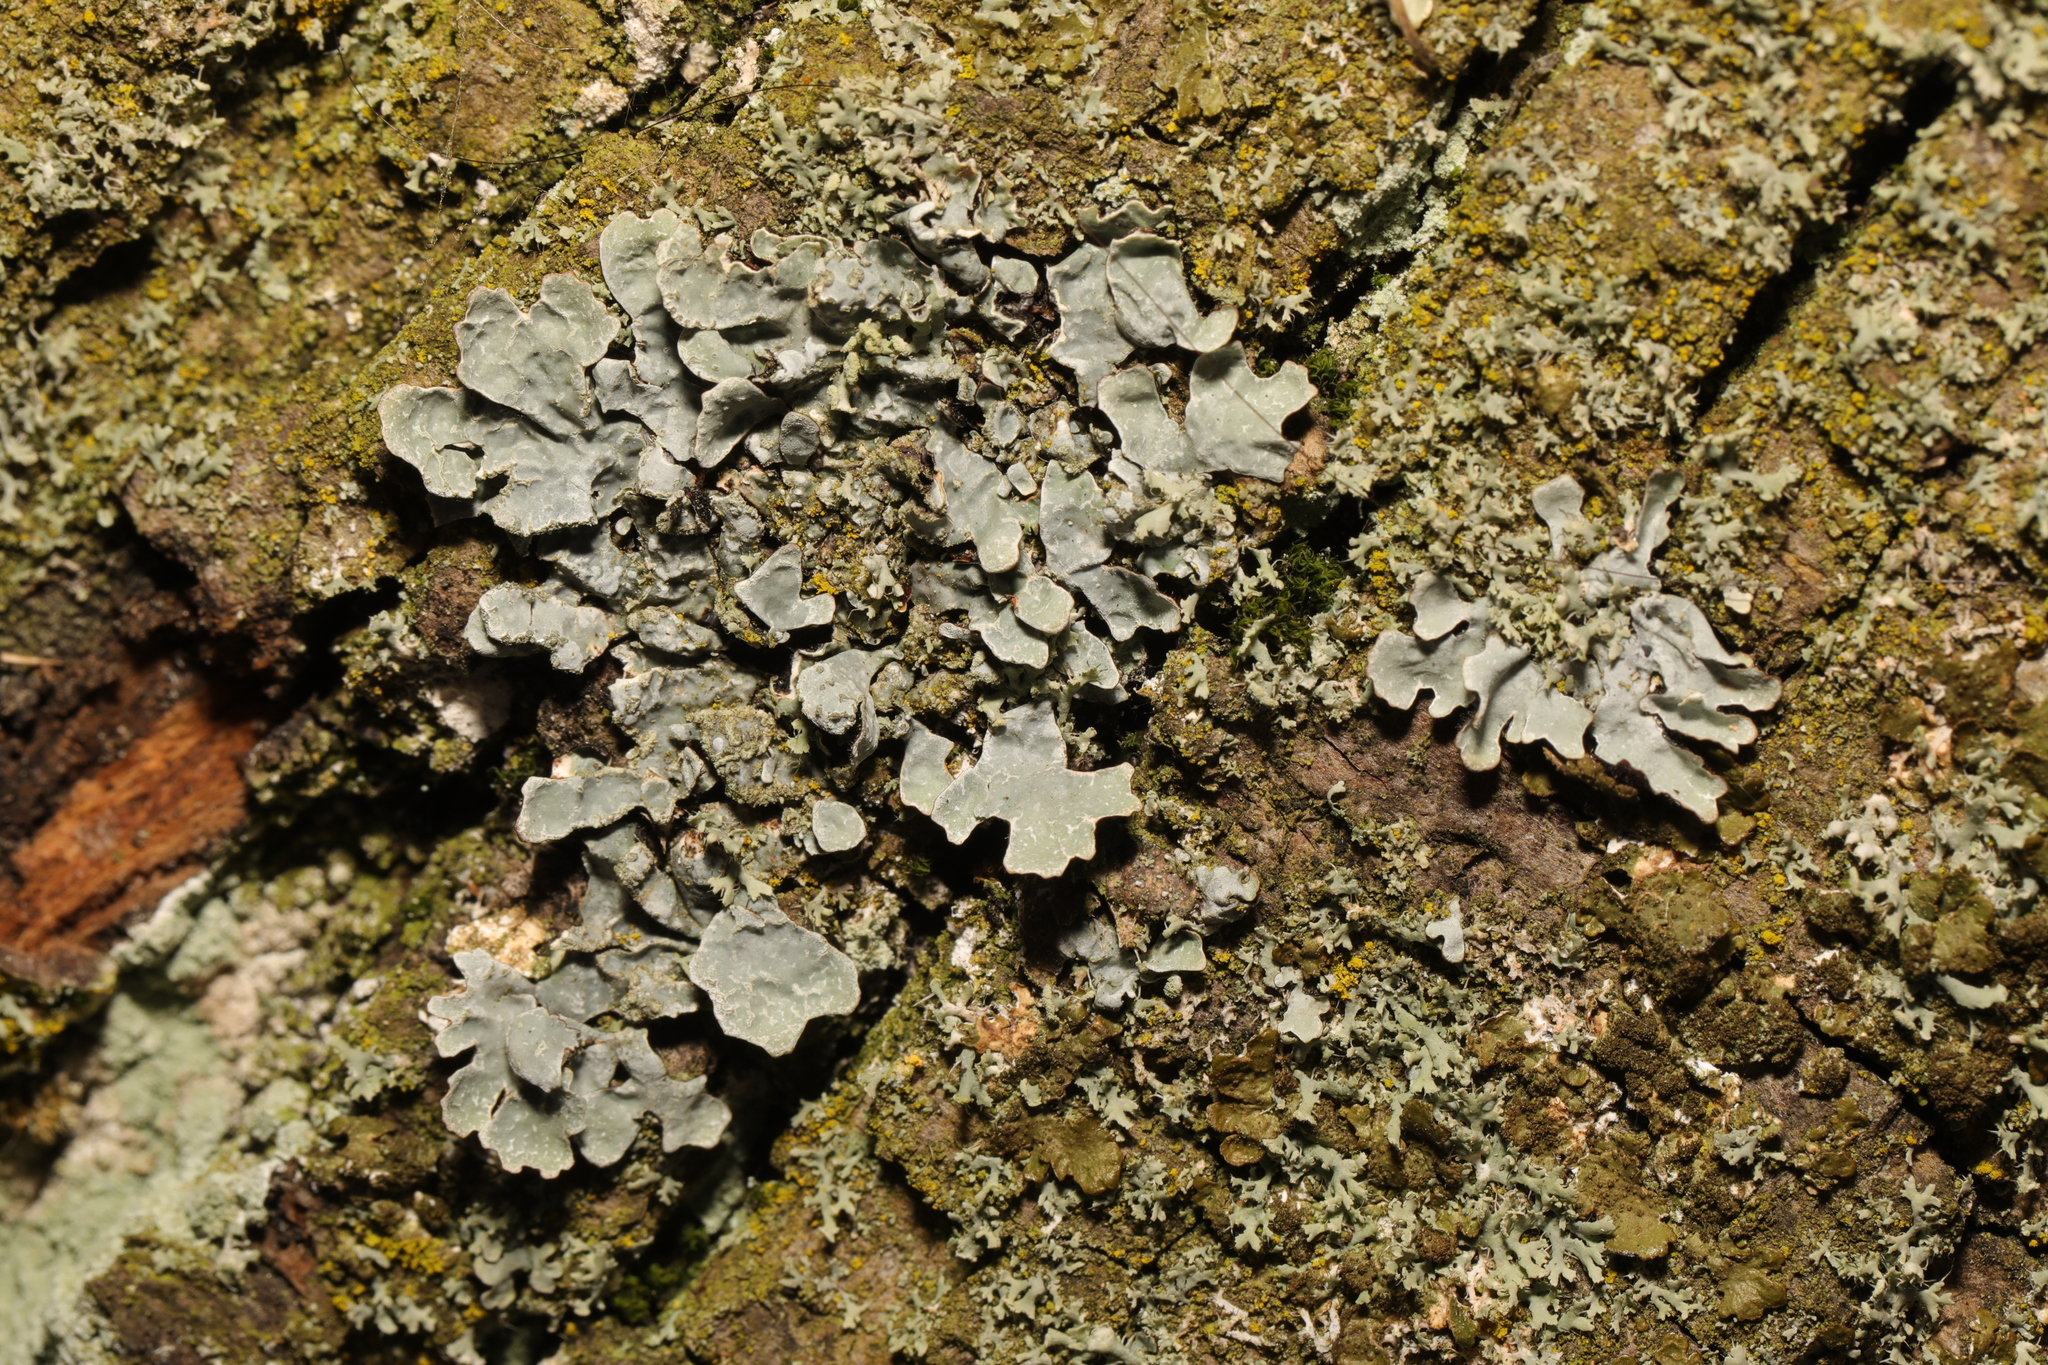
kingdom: Fungi
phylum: Ascomycota
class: Lecanoromycetes
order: Lecanorales
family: Parmeliaceae
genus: Parmelia
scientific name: Parmelia sulcata
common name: Netted shield lichen
